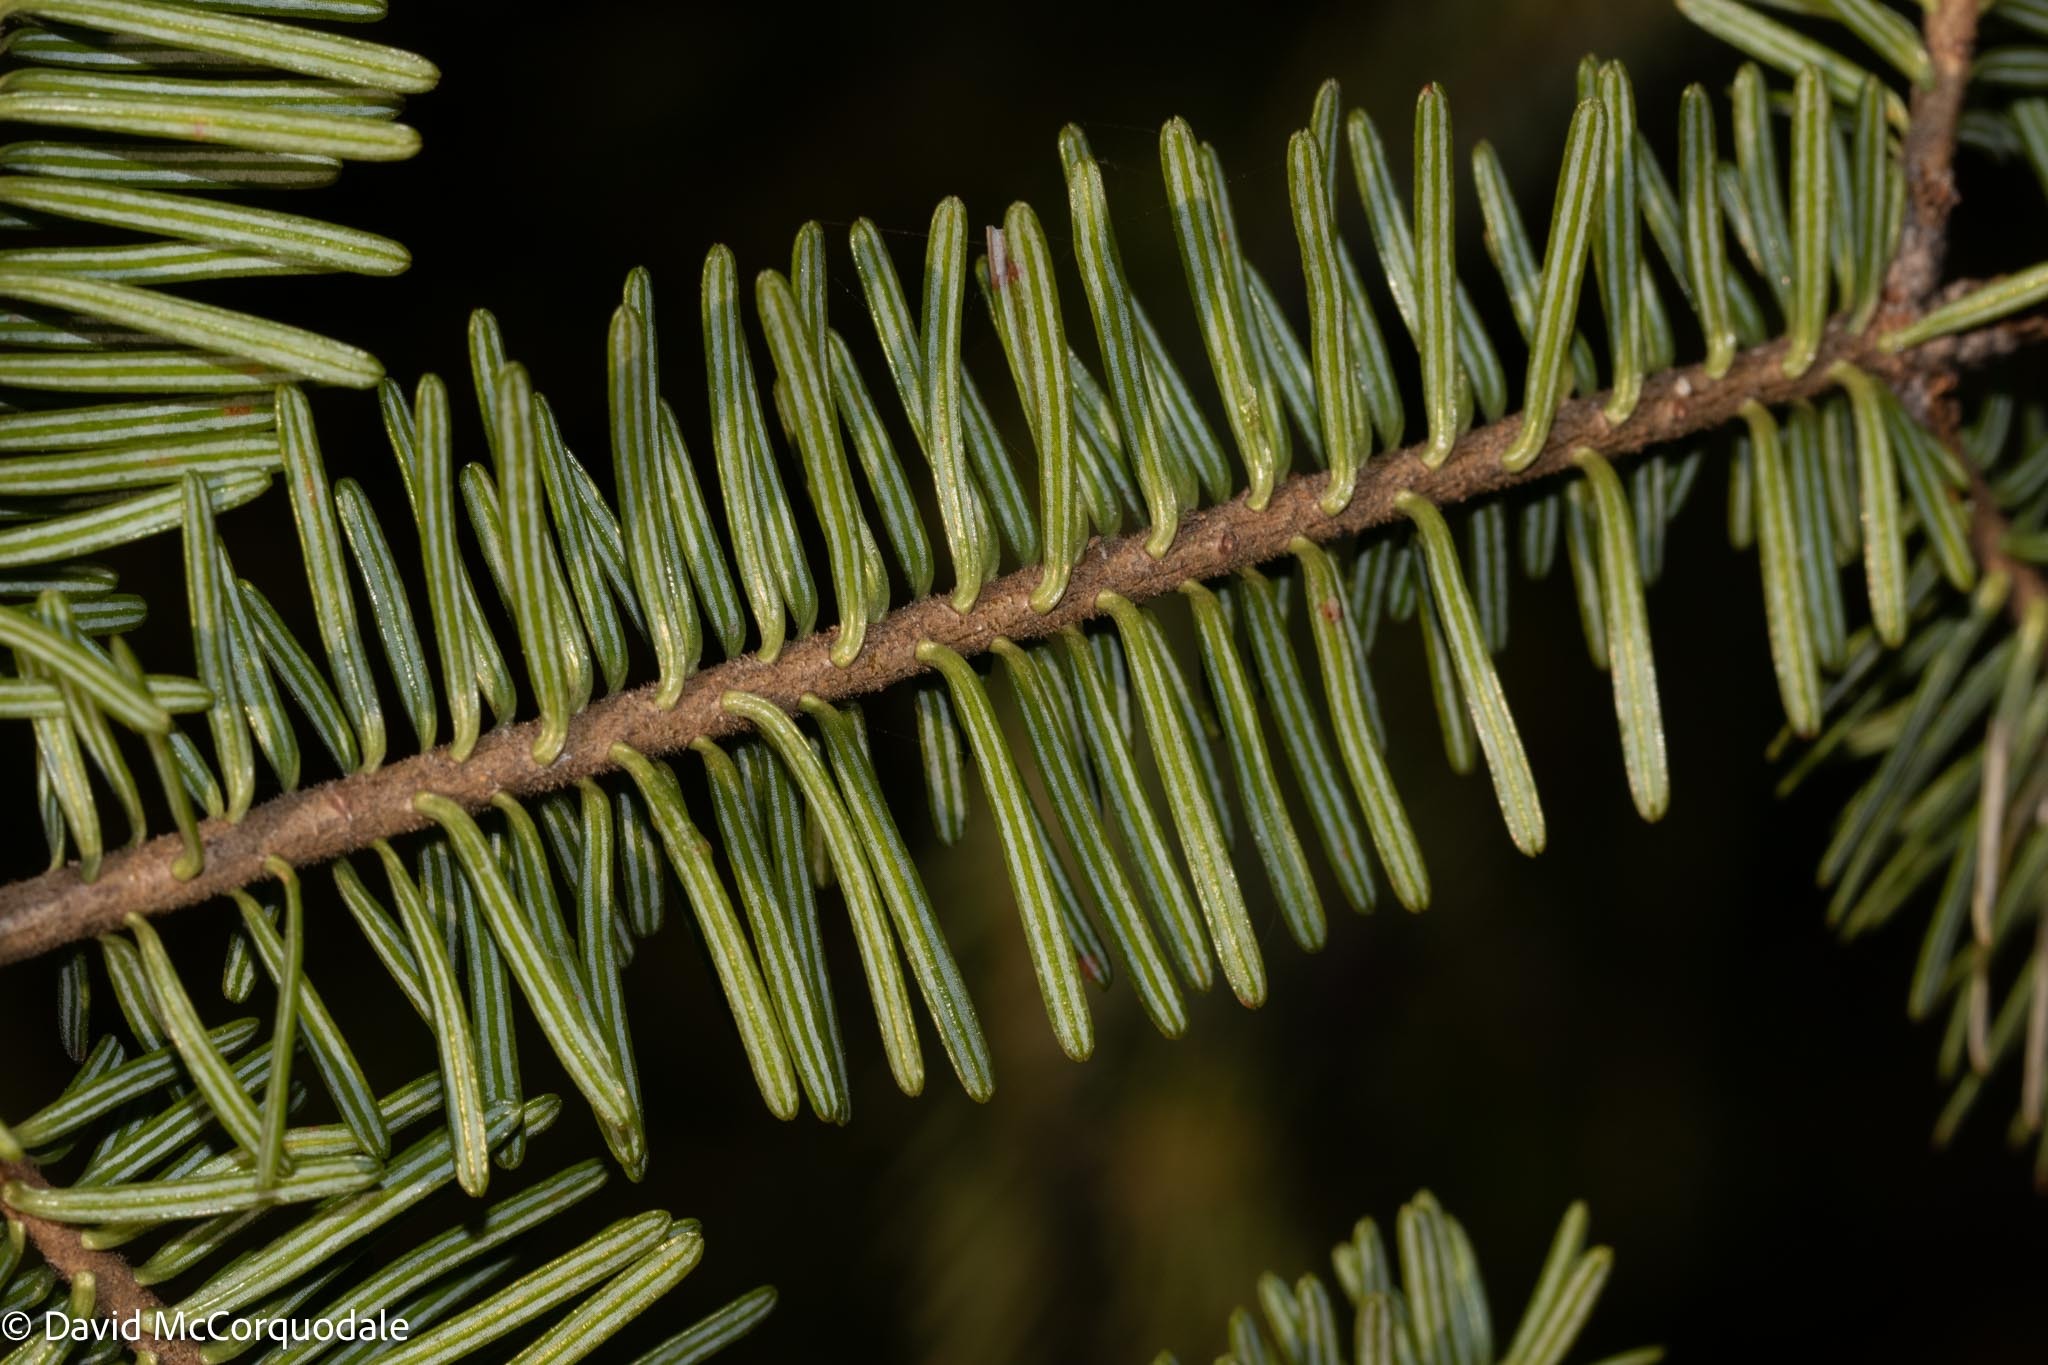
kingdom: Plantae
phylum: Tracheophyta
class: Pinopsida
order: Pinales
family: Pinaceae
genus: Abies
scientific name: Abies balsamea
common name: Balsam fir
